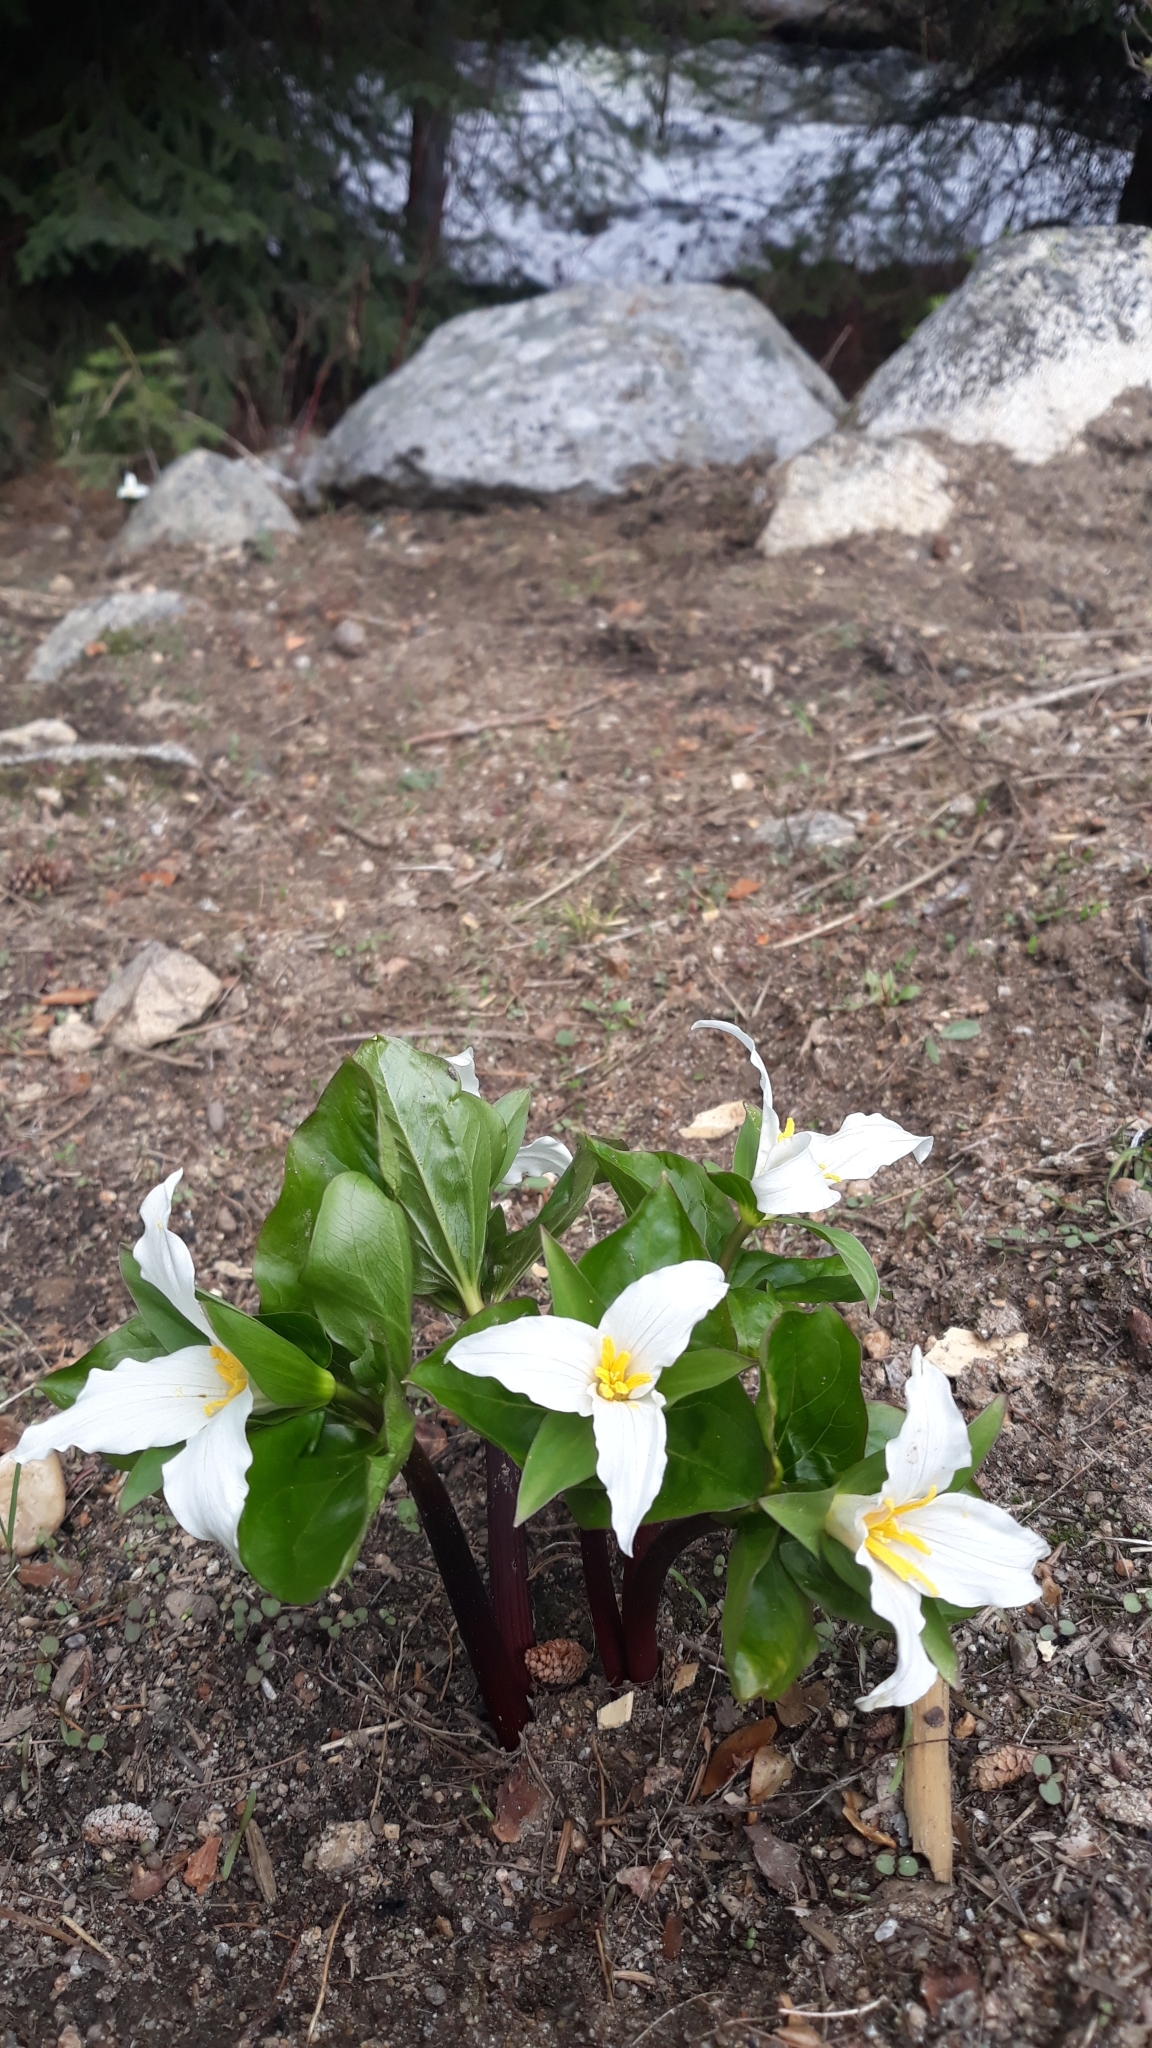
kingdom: Plantae
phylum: Tracheophyta
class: Liliopsida
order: Liliales
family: Melanthiaceae
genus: Trillium
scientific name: Trillium ovatum
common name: Pacific trillium
